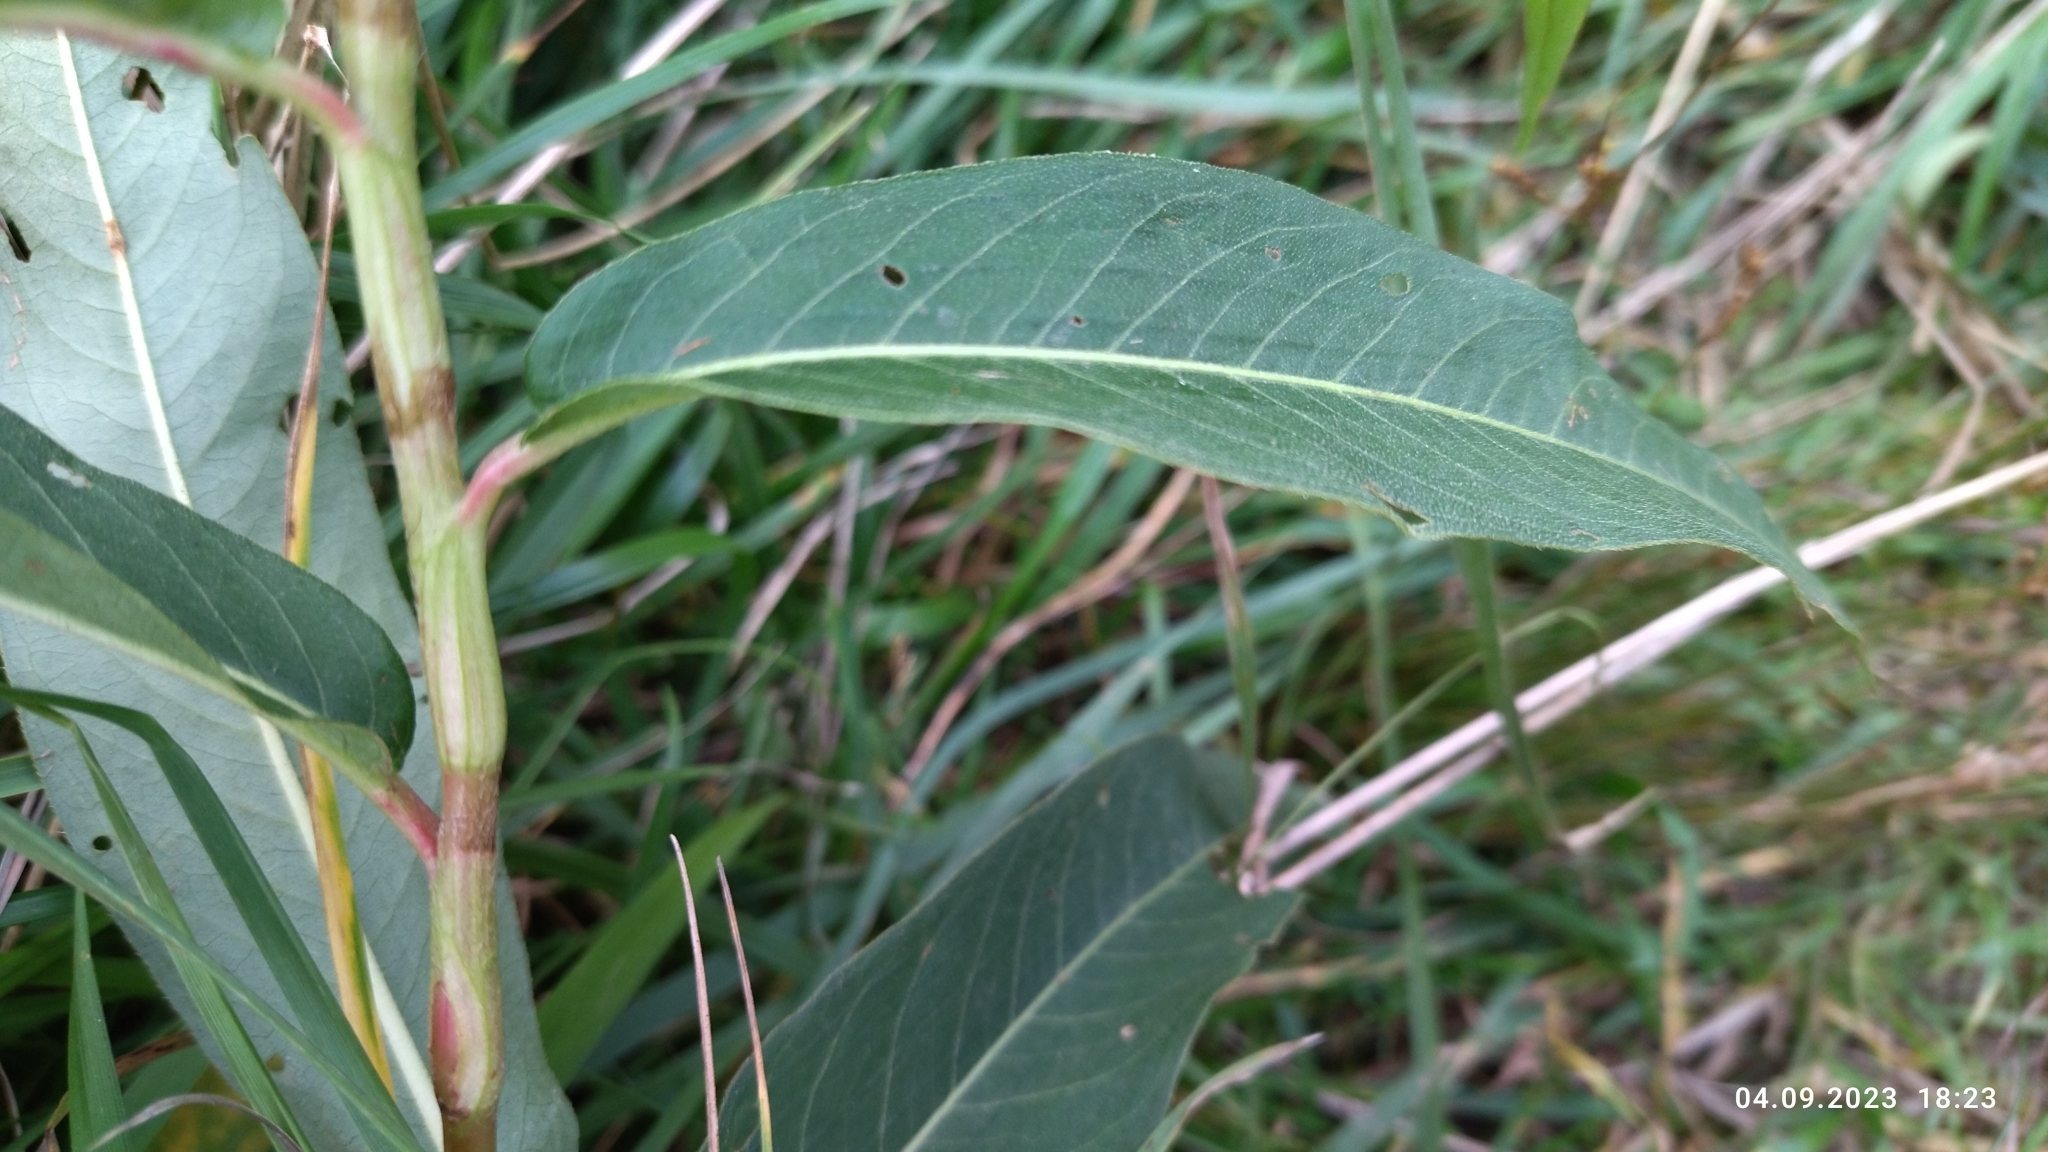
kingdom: Plantae
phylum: Tracheophyta
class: Magnoliopsida
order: Caryophyllales
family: Polygonaceae
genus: Persicaria
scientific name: Persicaria amphibia
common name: Amphibious bistort
